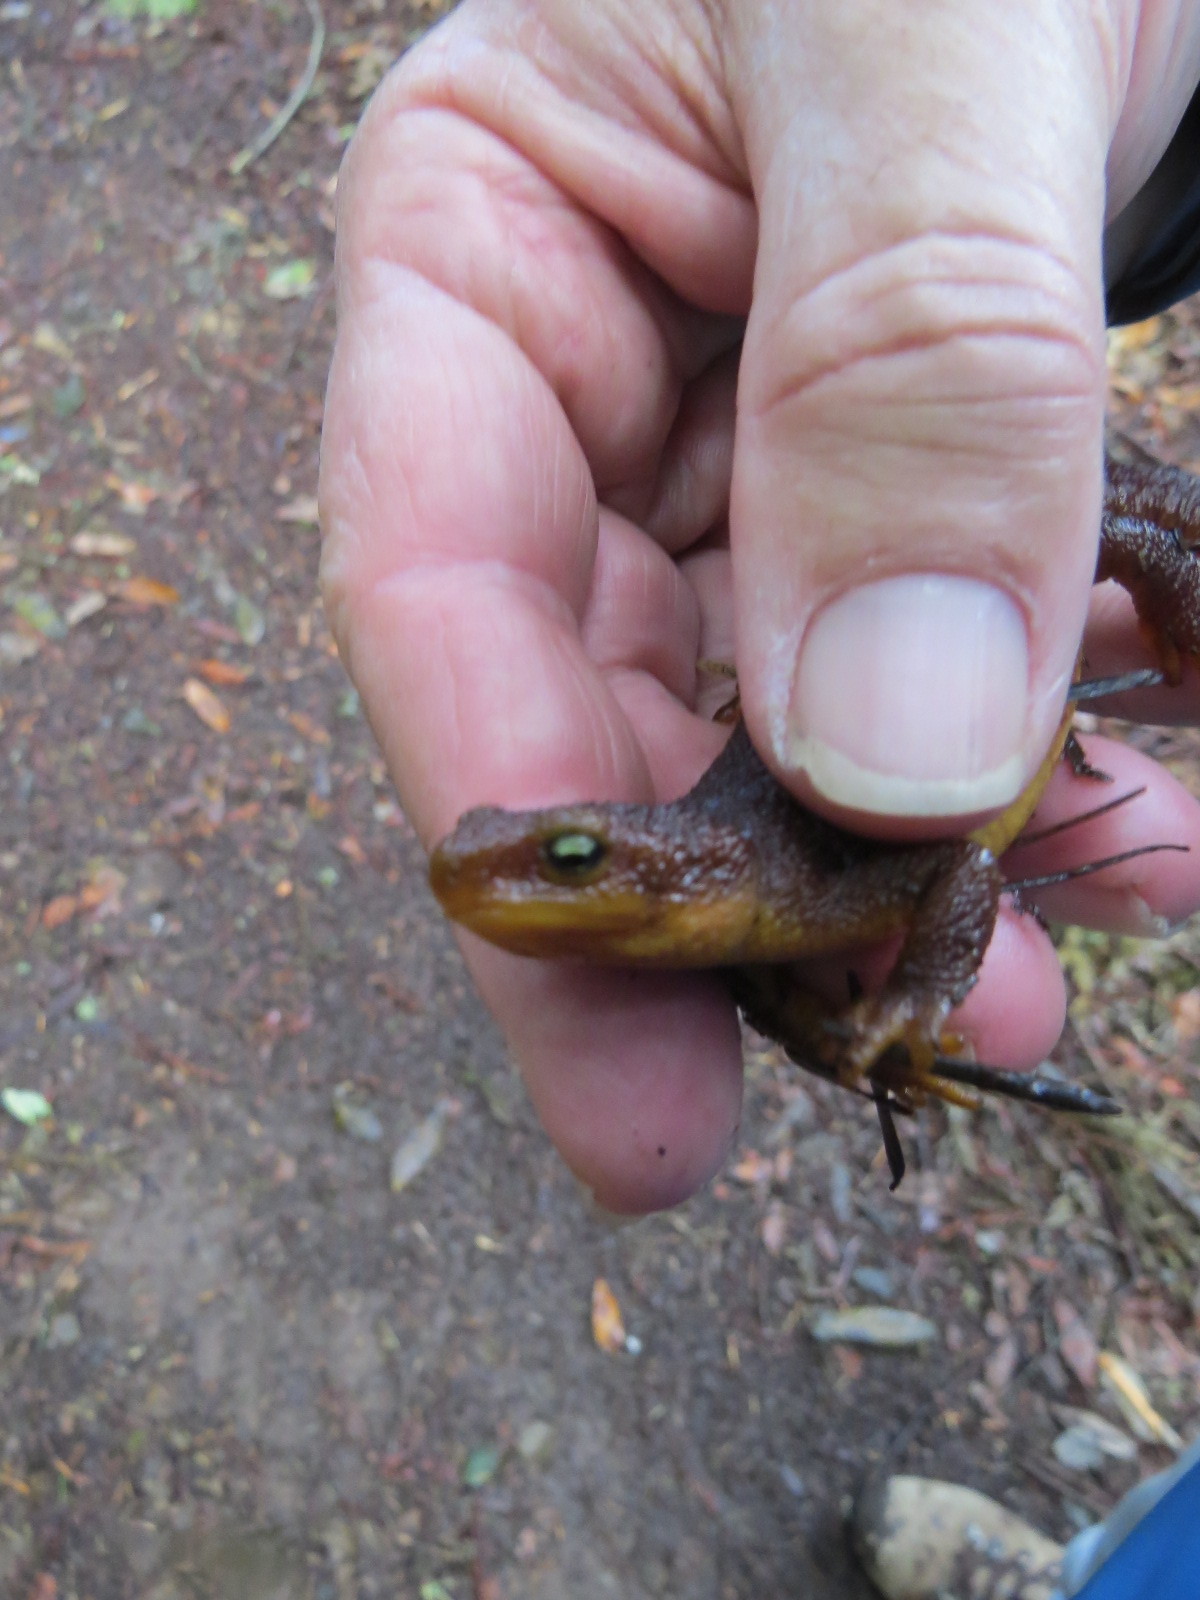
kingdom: Animalia
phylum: Chordata
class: Amphibia
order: Caudata
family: Salamandridae
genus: Taricha
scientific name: Taricha granulosa
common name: Roughskin newt
